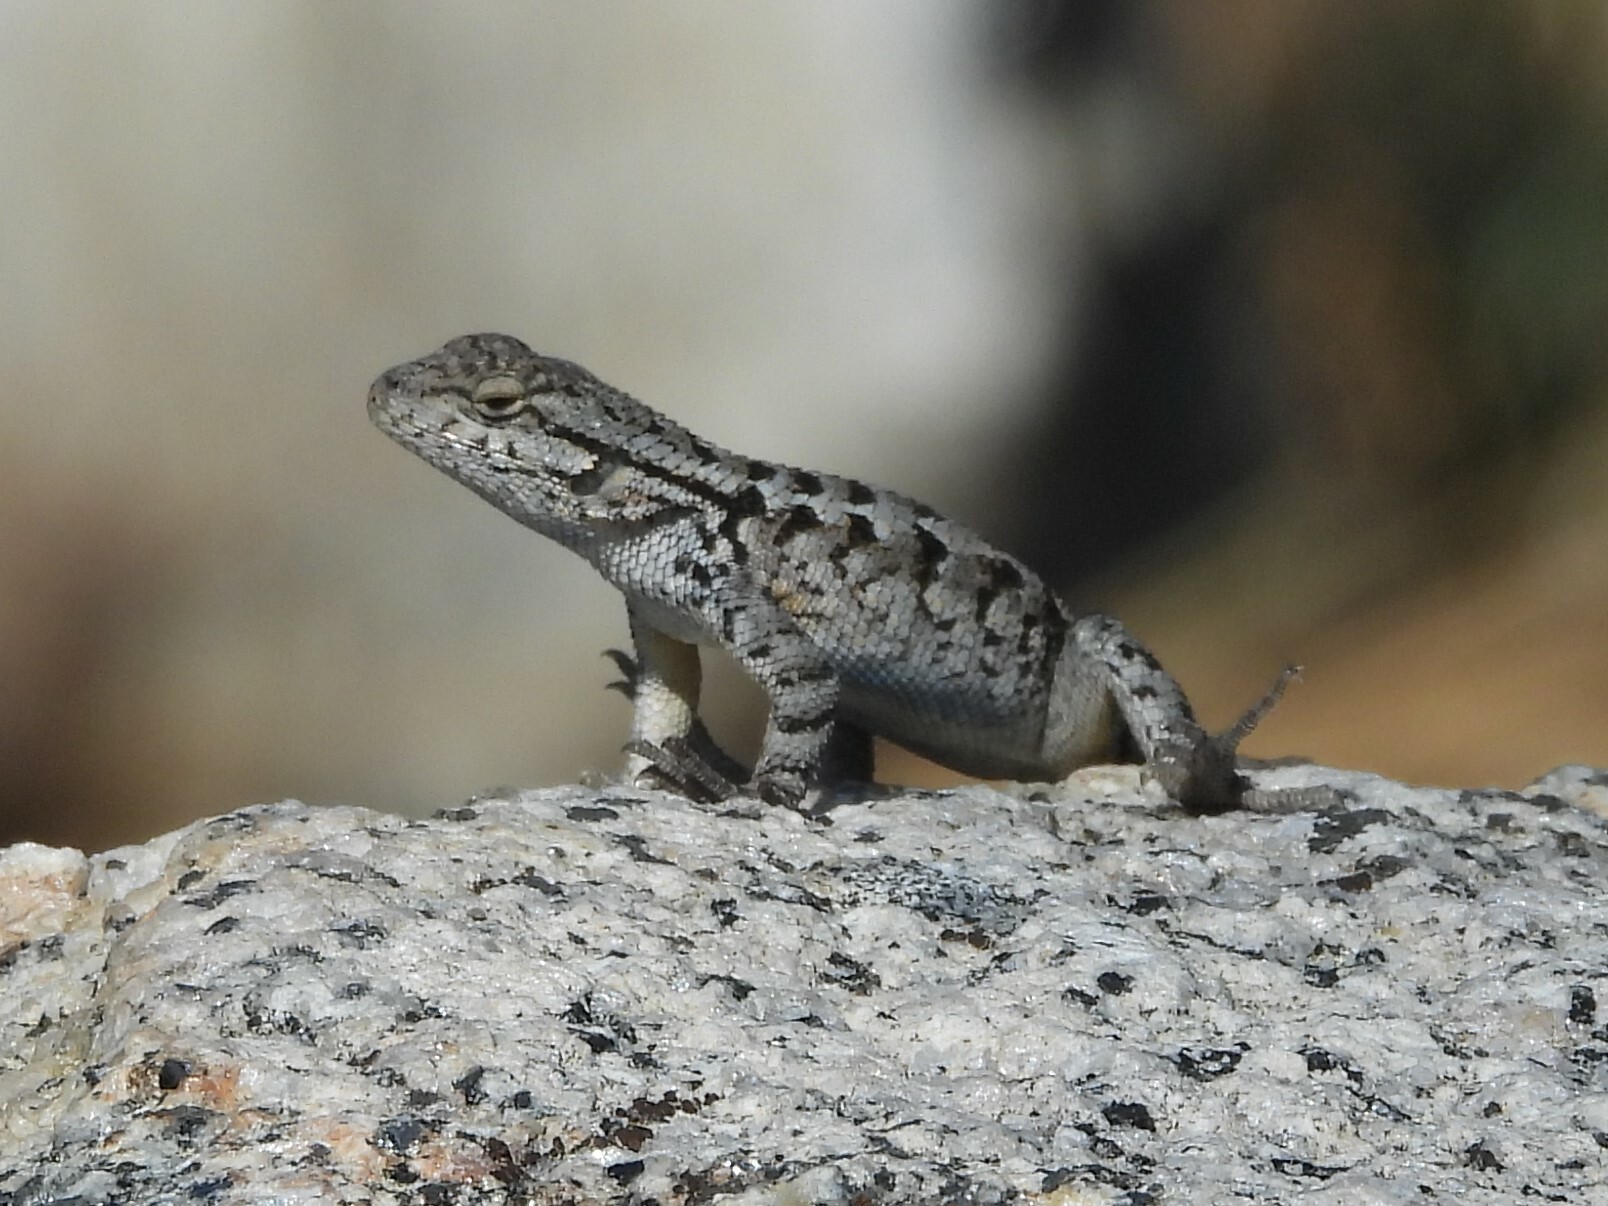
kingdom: Animalia
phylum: Chordata
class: Squamata
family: Phrynosomatidae
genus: Sceloporus
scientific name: Sceloporus occidentalis
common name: Western fence lizard
